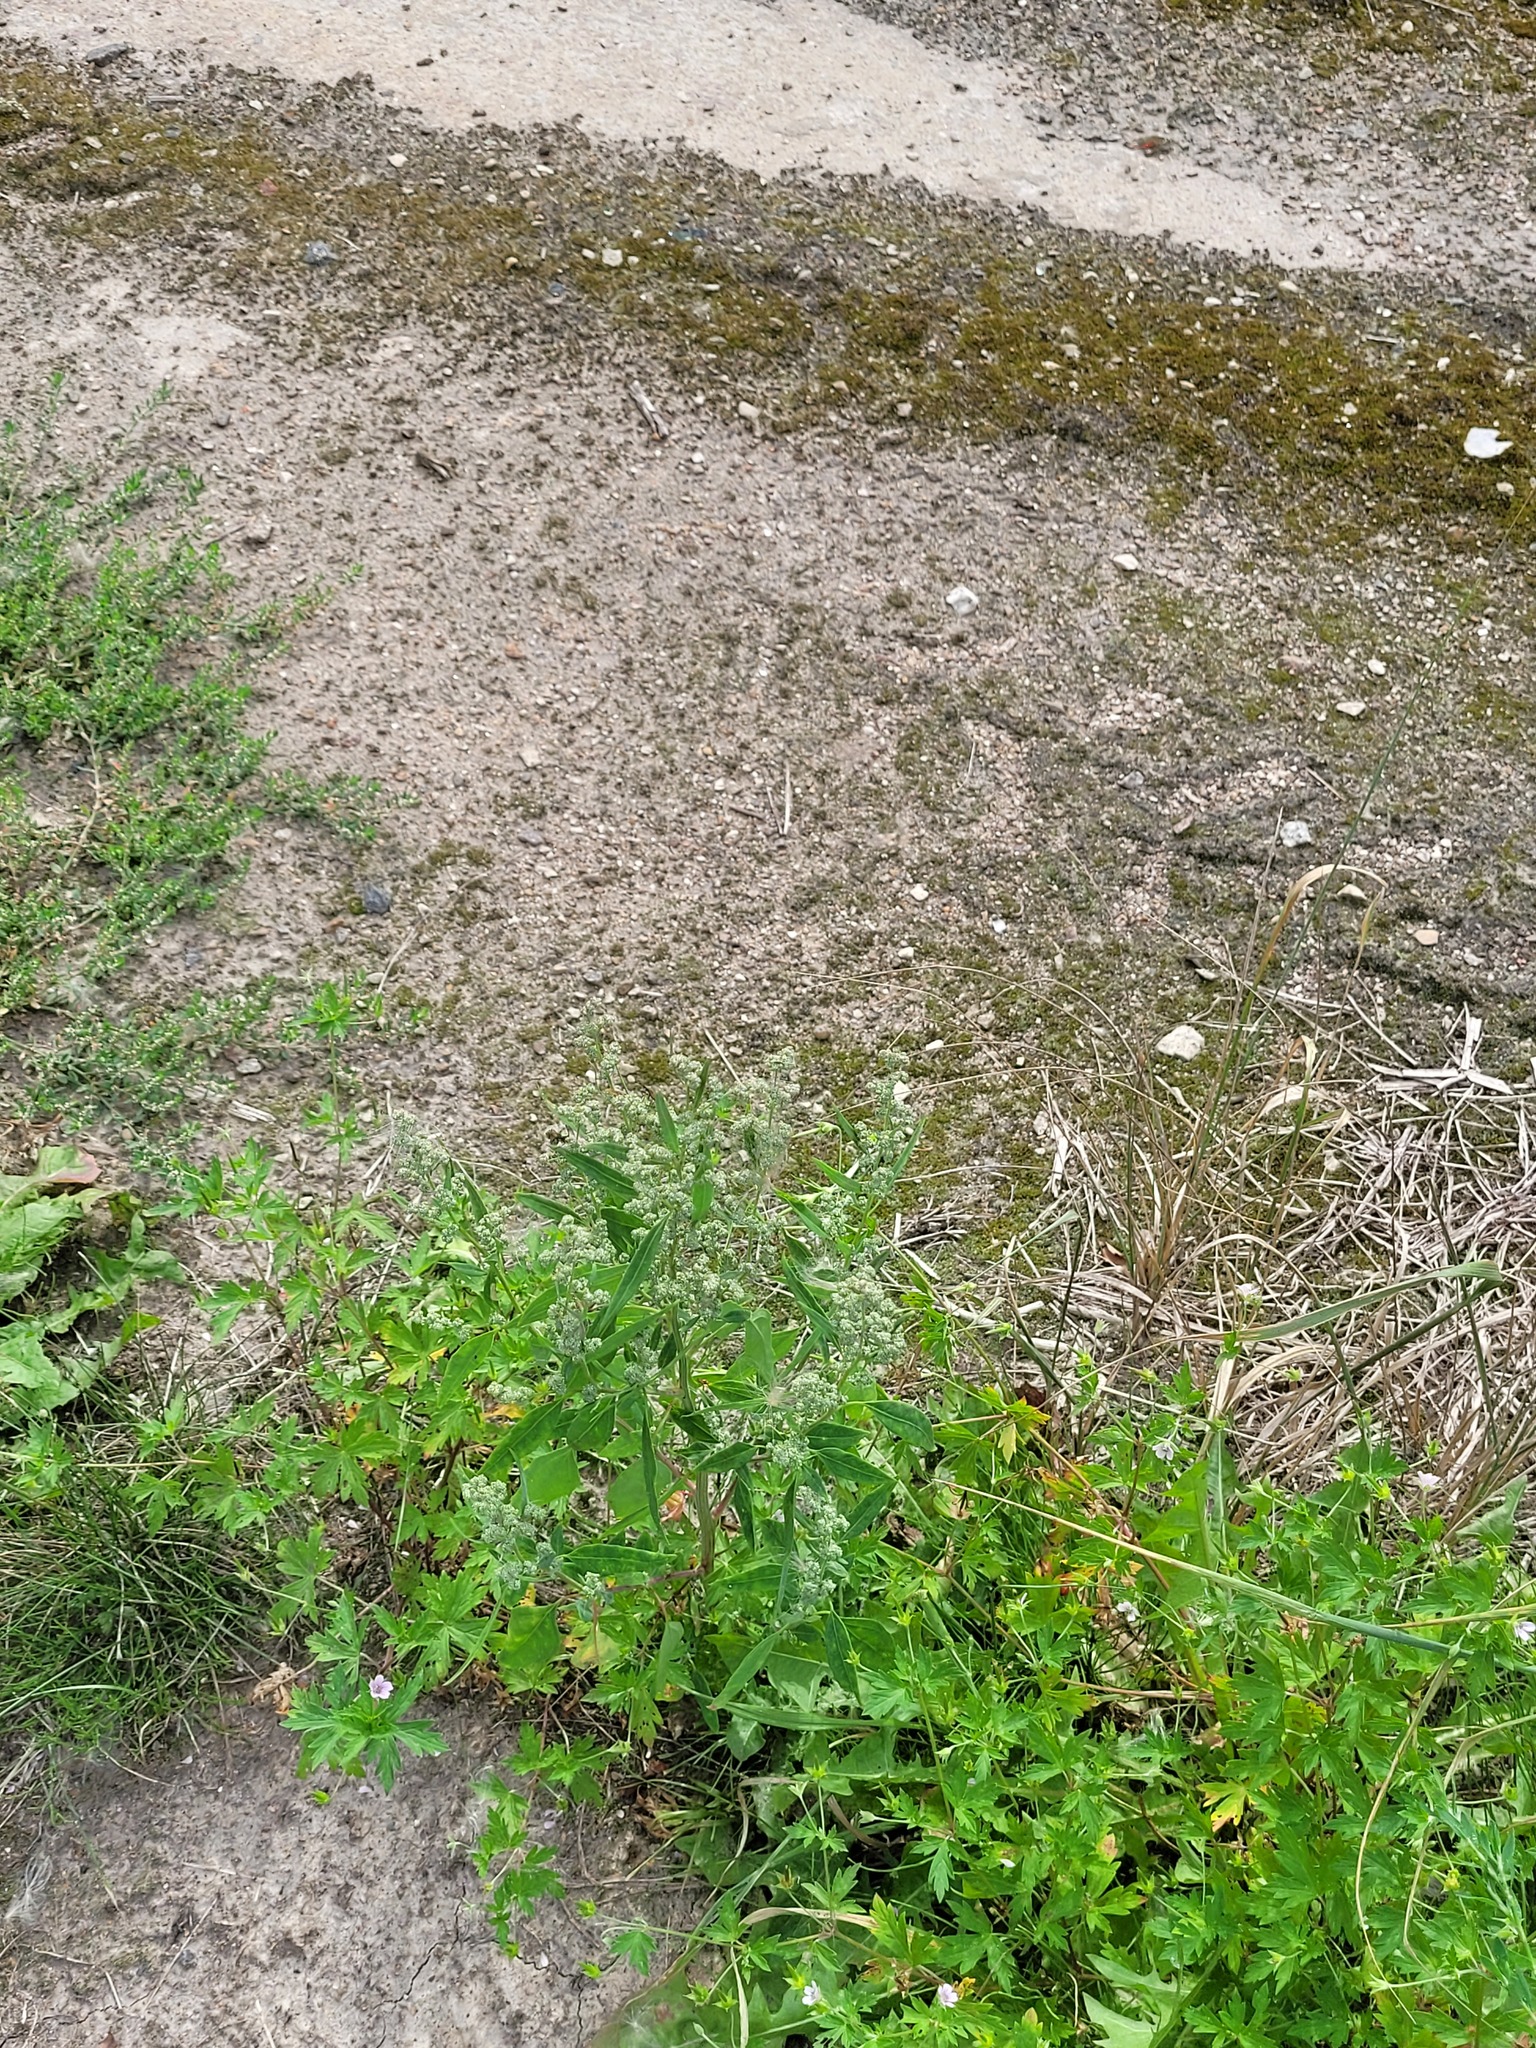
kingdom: Plantae
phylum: Tracheophyta
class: Magnoliopsida
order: Caryophyllales
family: Amaranthaceae
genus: Chenopodium
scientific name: Chenopodium album
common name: Fat-hen
